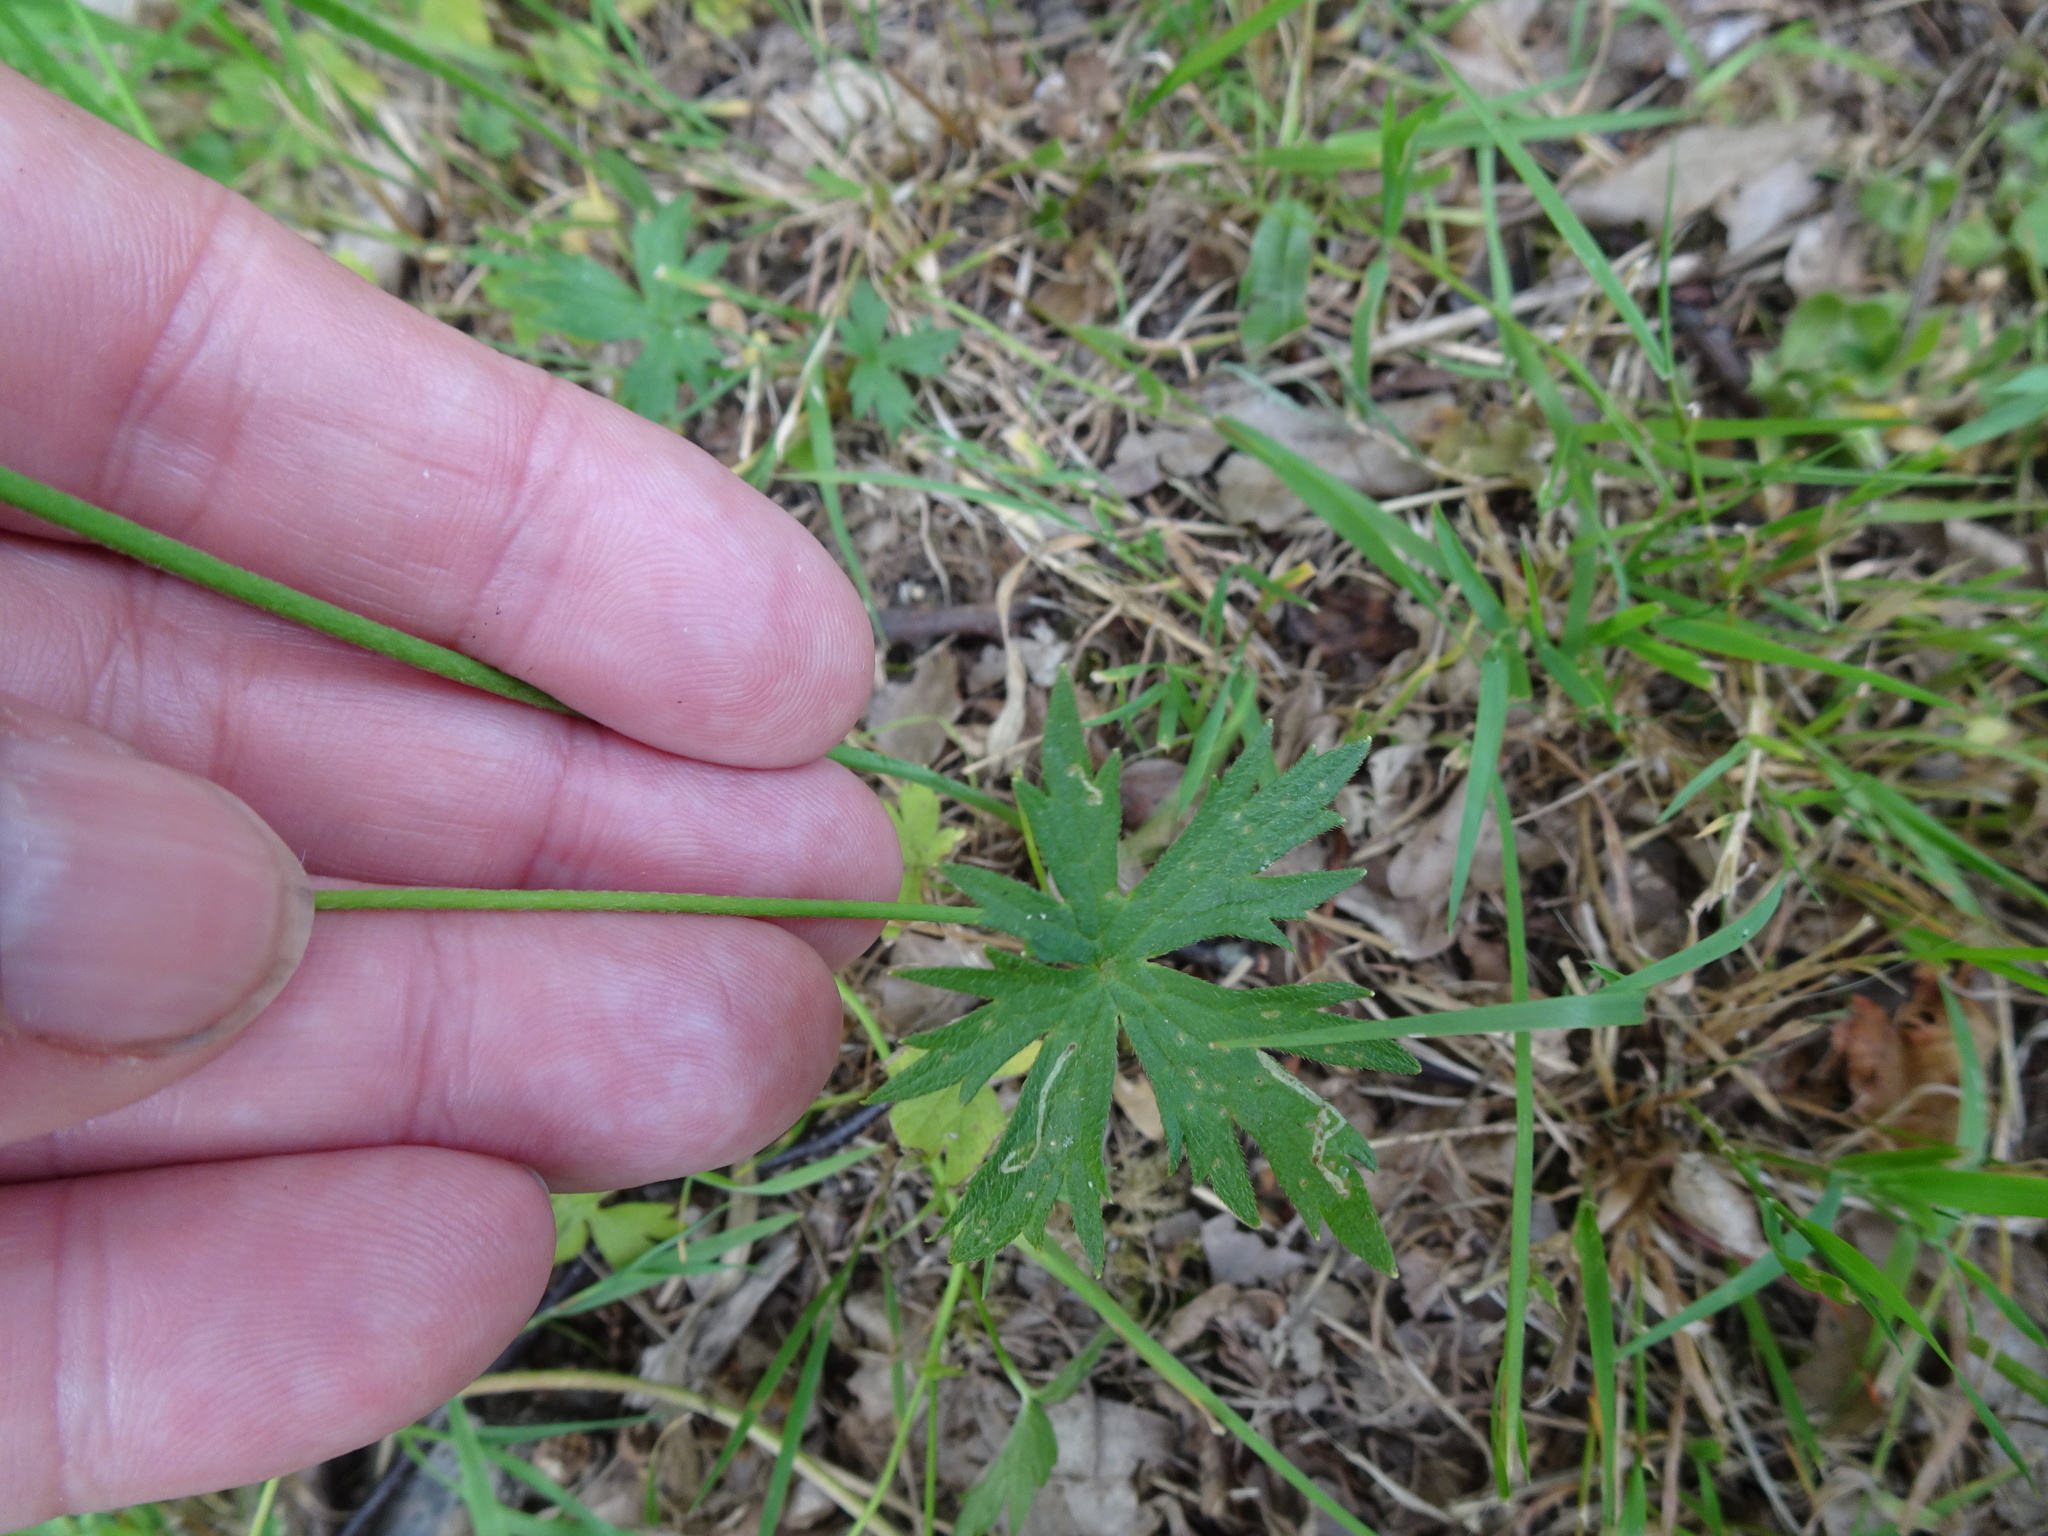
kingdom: Plantae
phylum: Tracheophyta
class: Magnoliopsida
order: Ranunculales
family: Ranunculaceae
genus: Ranunculus
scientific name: Ranunculus acris
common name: Meadow buttercup
